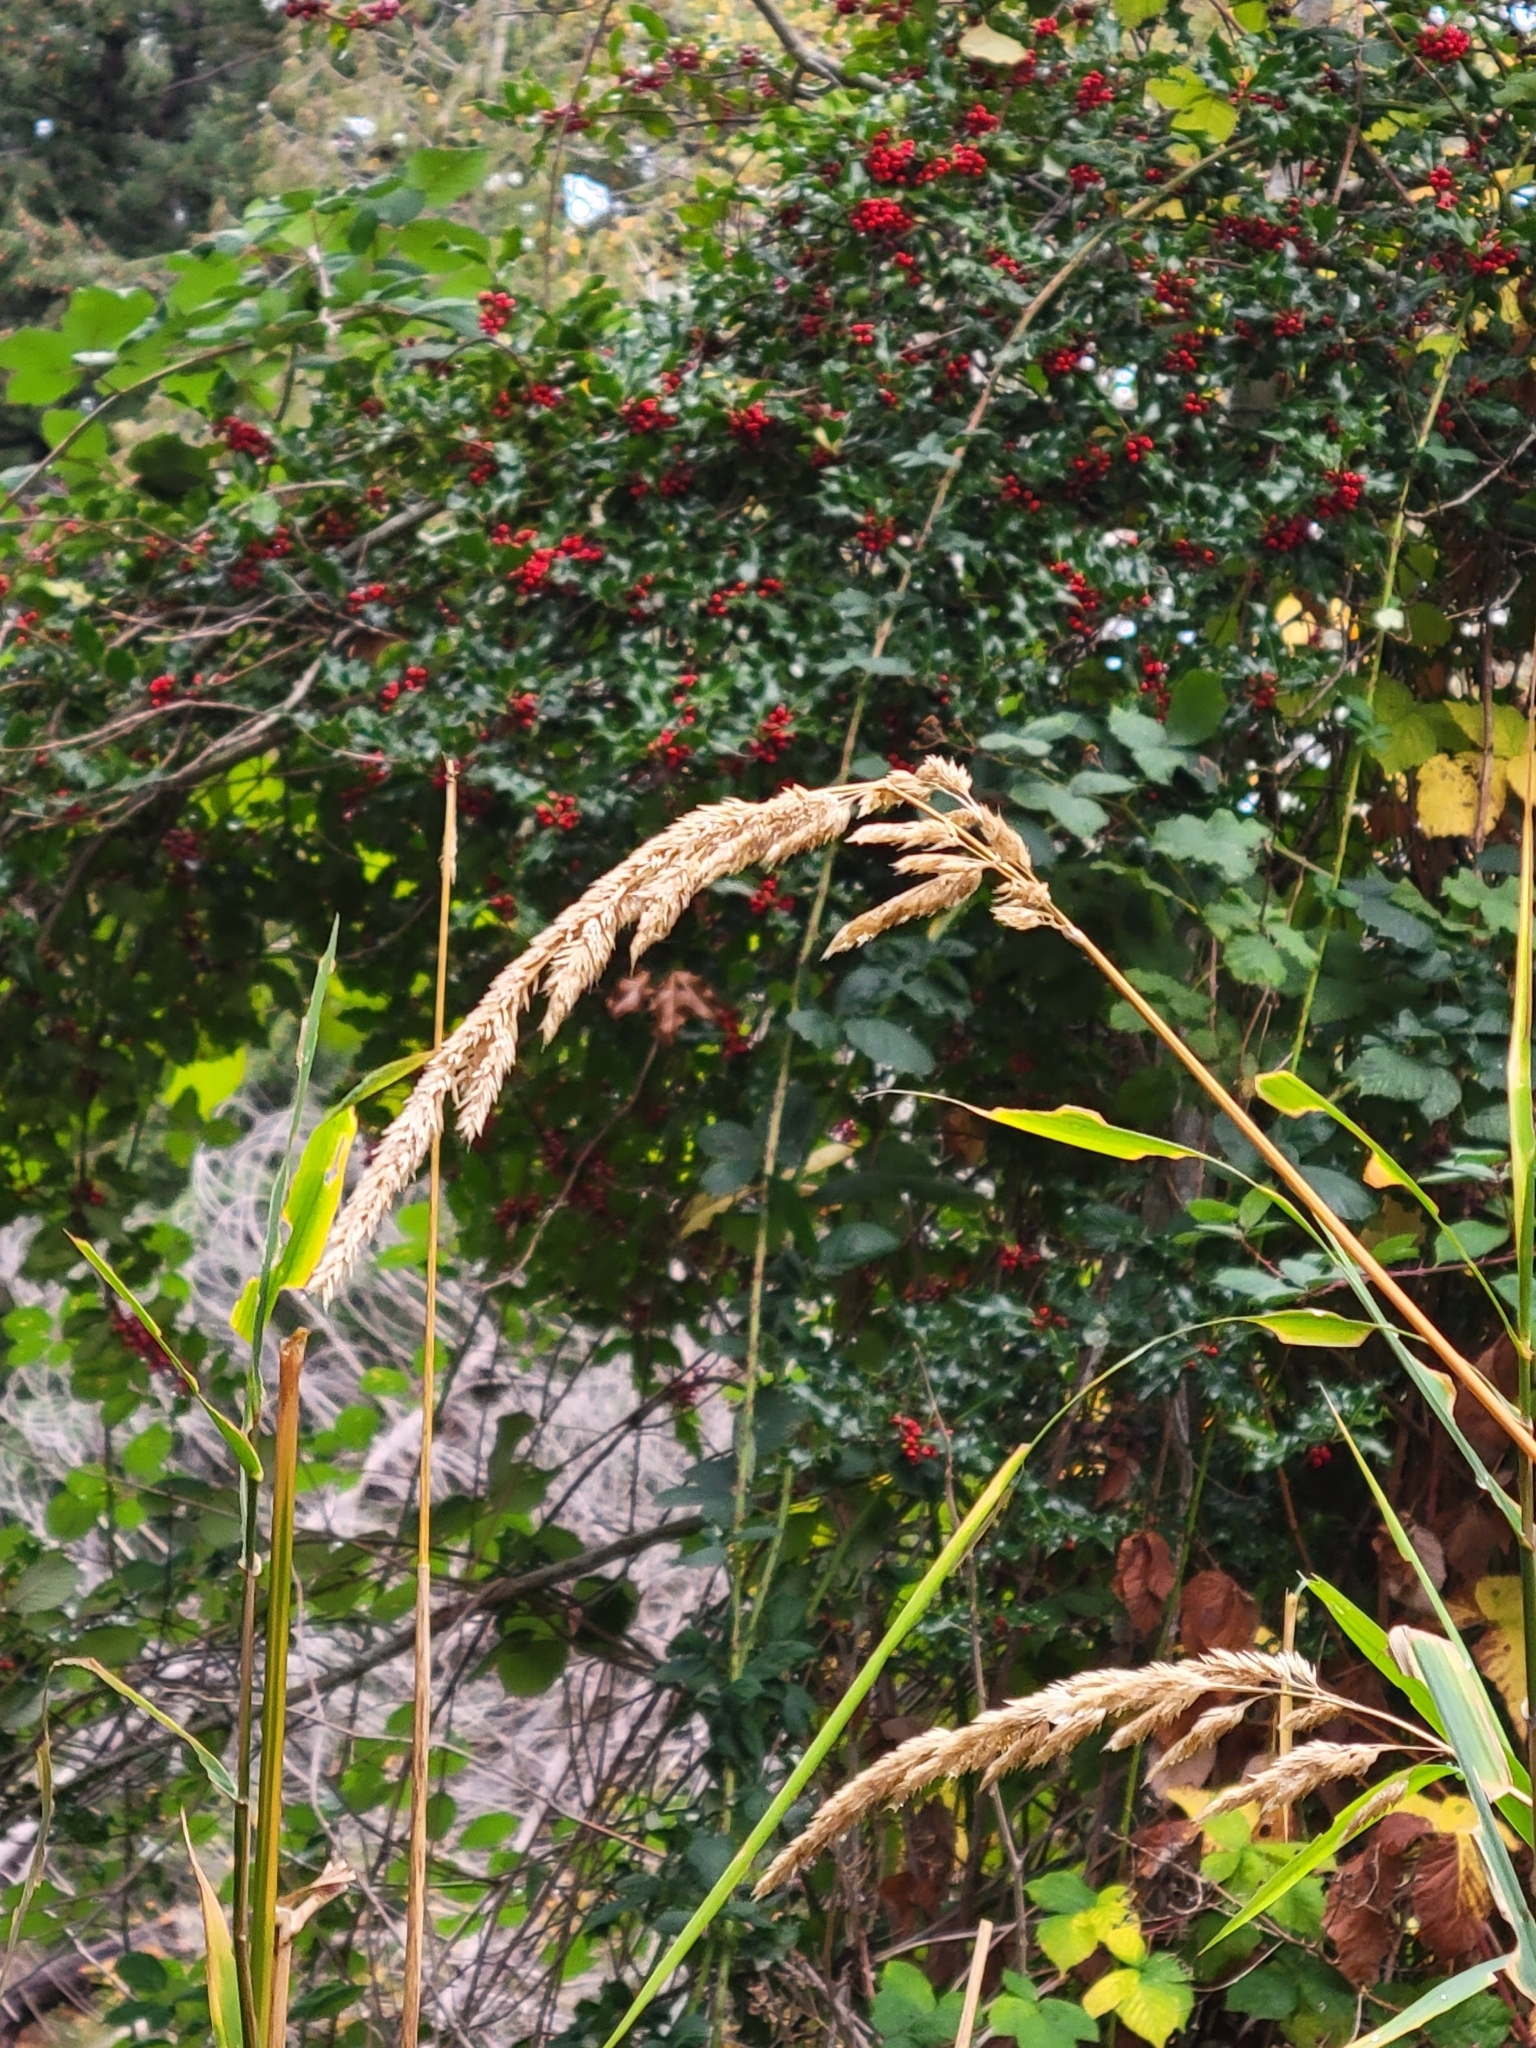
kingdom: Plantae
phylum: Tracheophyta
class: Liliopsida
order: Poales
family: Poaceae
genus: Phalaris
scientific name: Phalaris arundinacea
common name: Reed canary-grass
